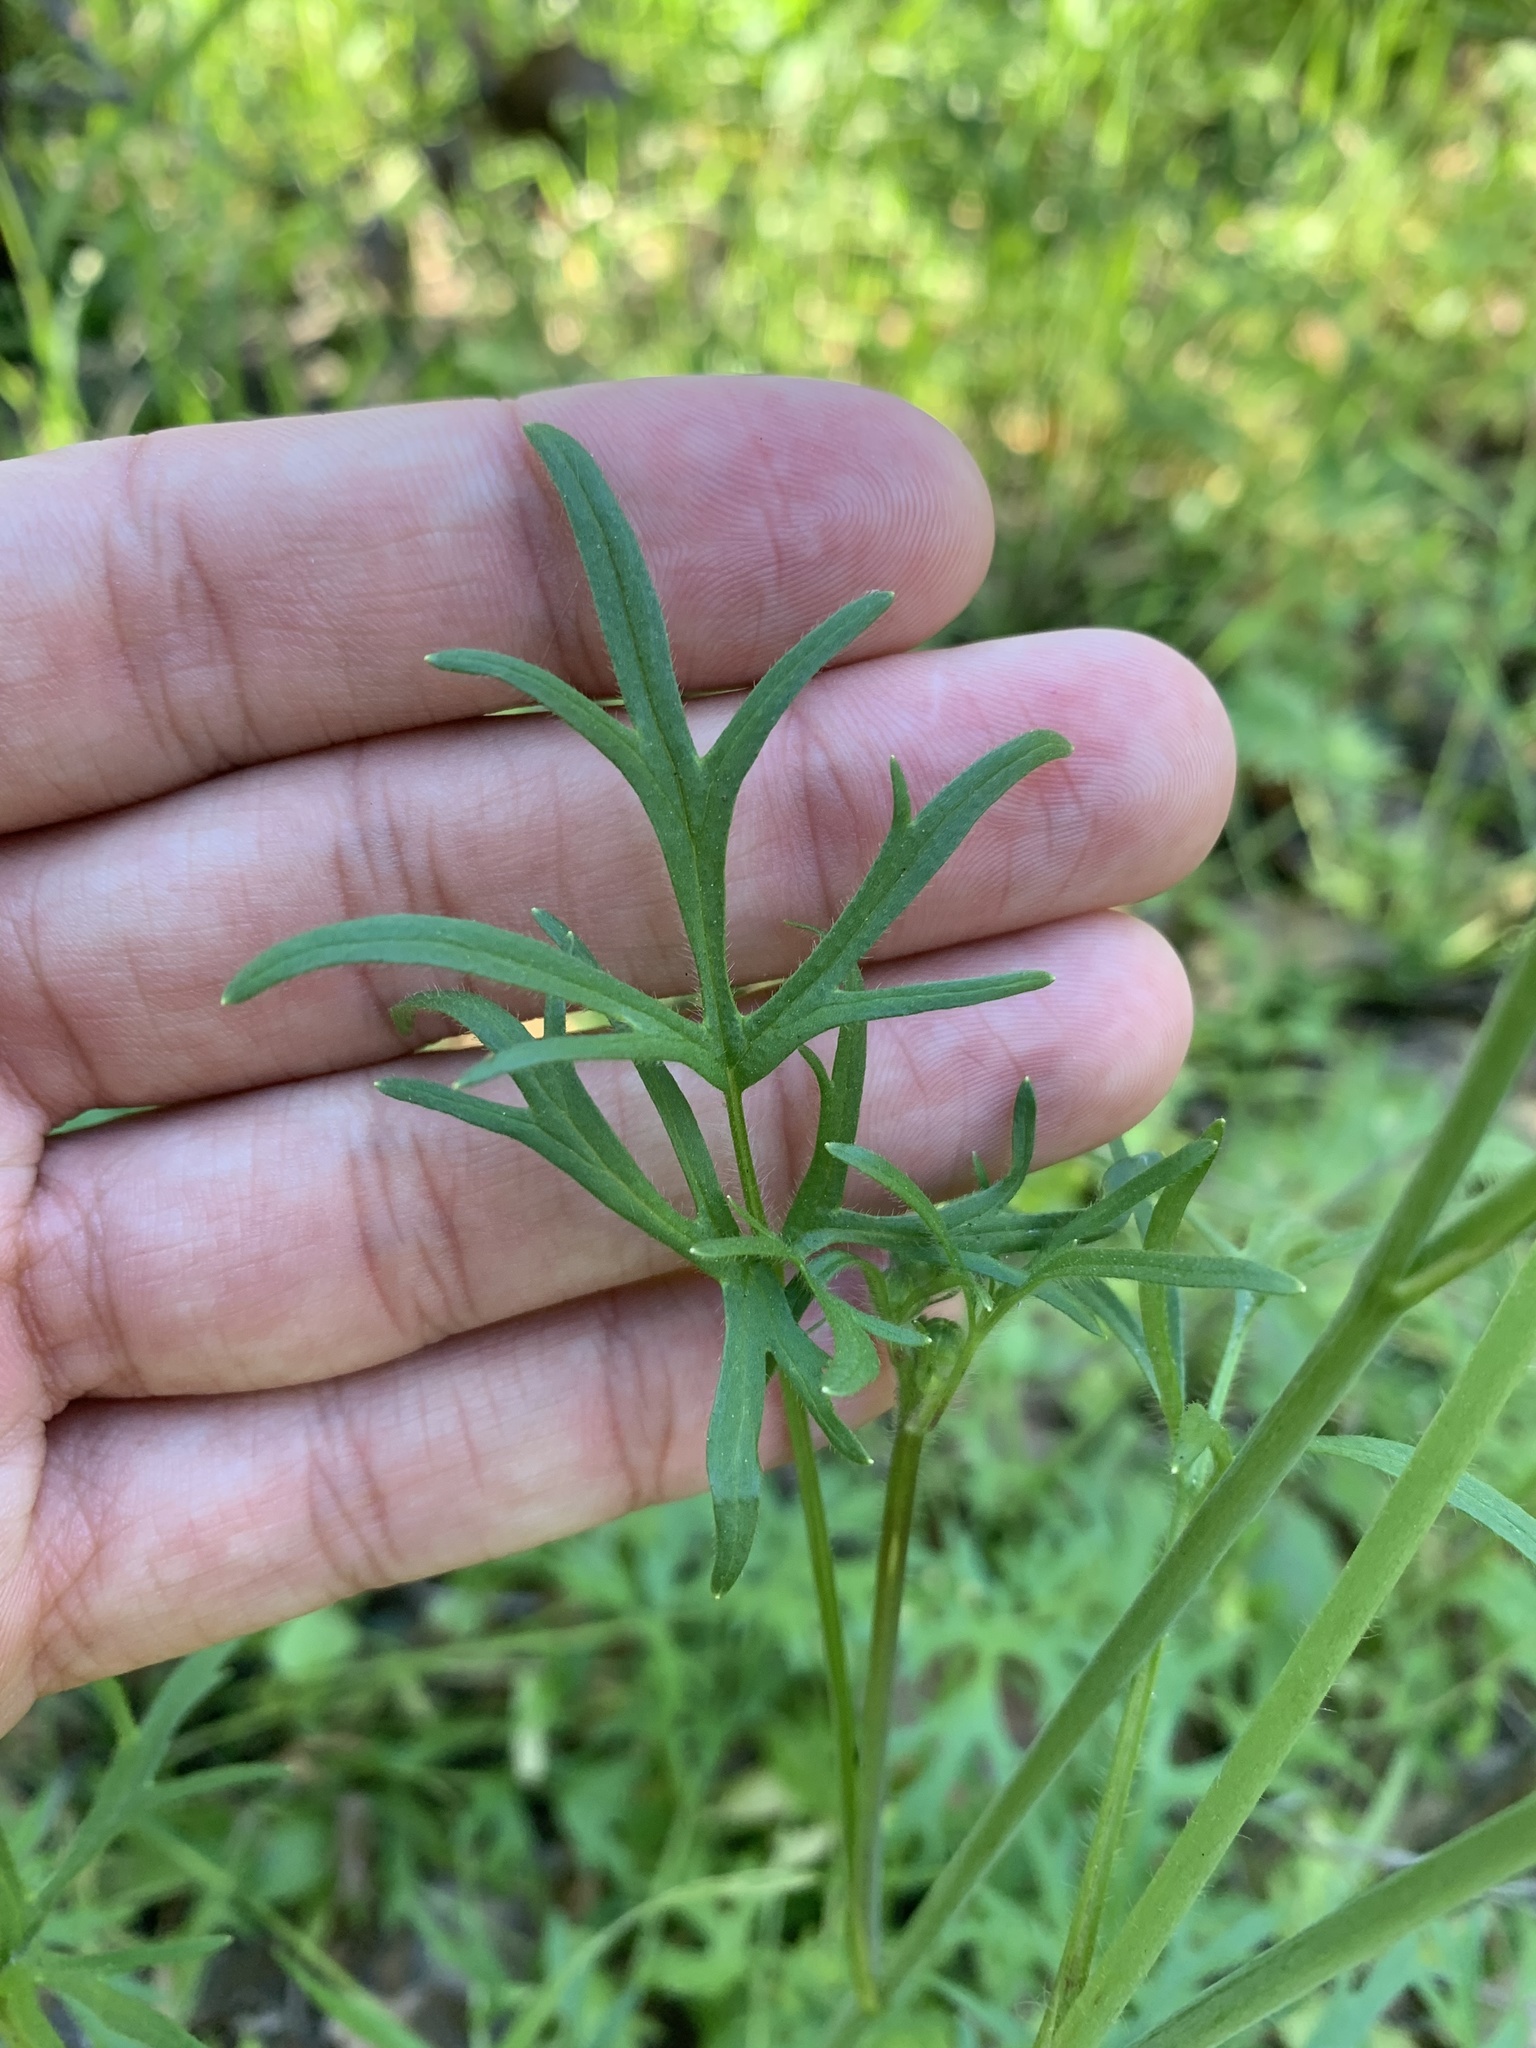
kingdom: Plantae
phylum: Tracheophyta
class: Magnoliopsida
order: Ranunculales
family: Ranunculaceae
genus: Ranunculus
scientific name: Ranunculus californicus
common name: California buttercup
